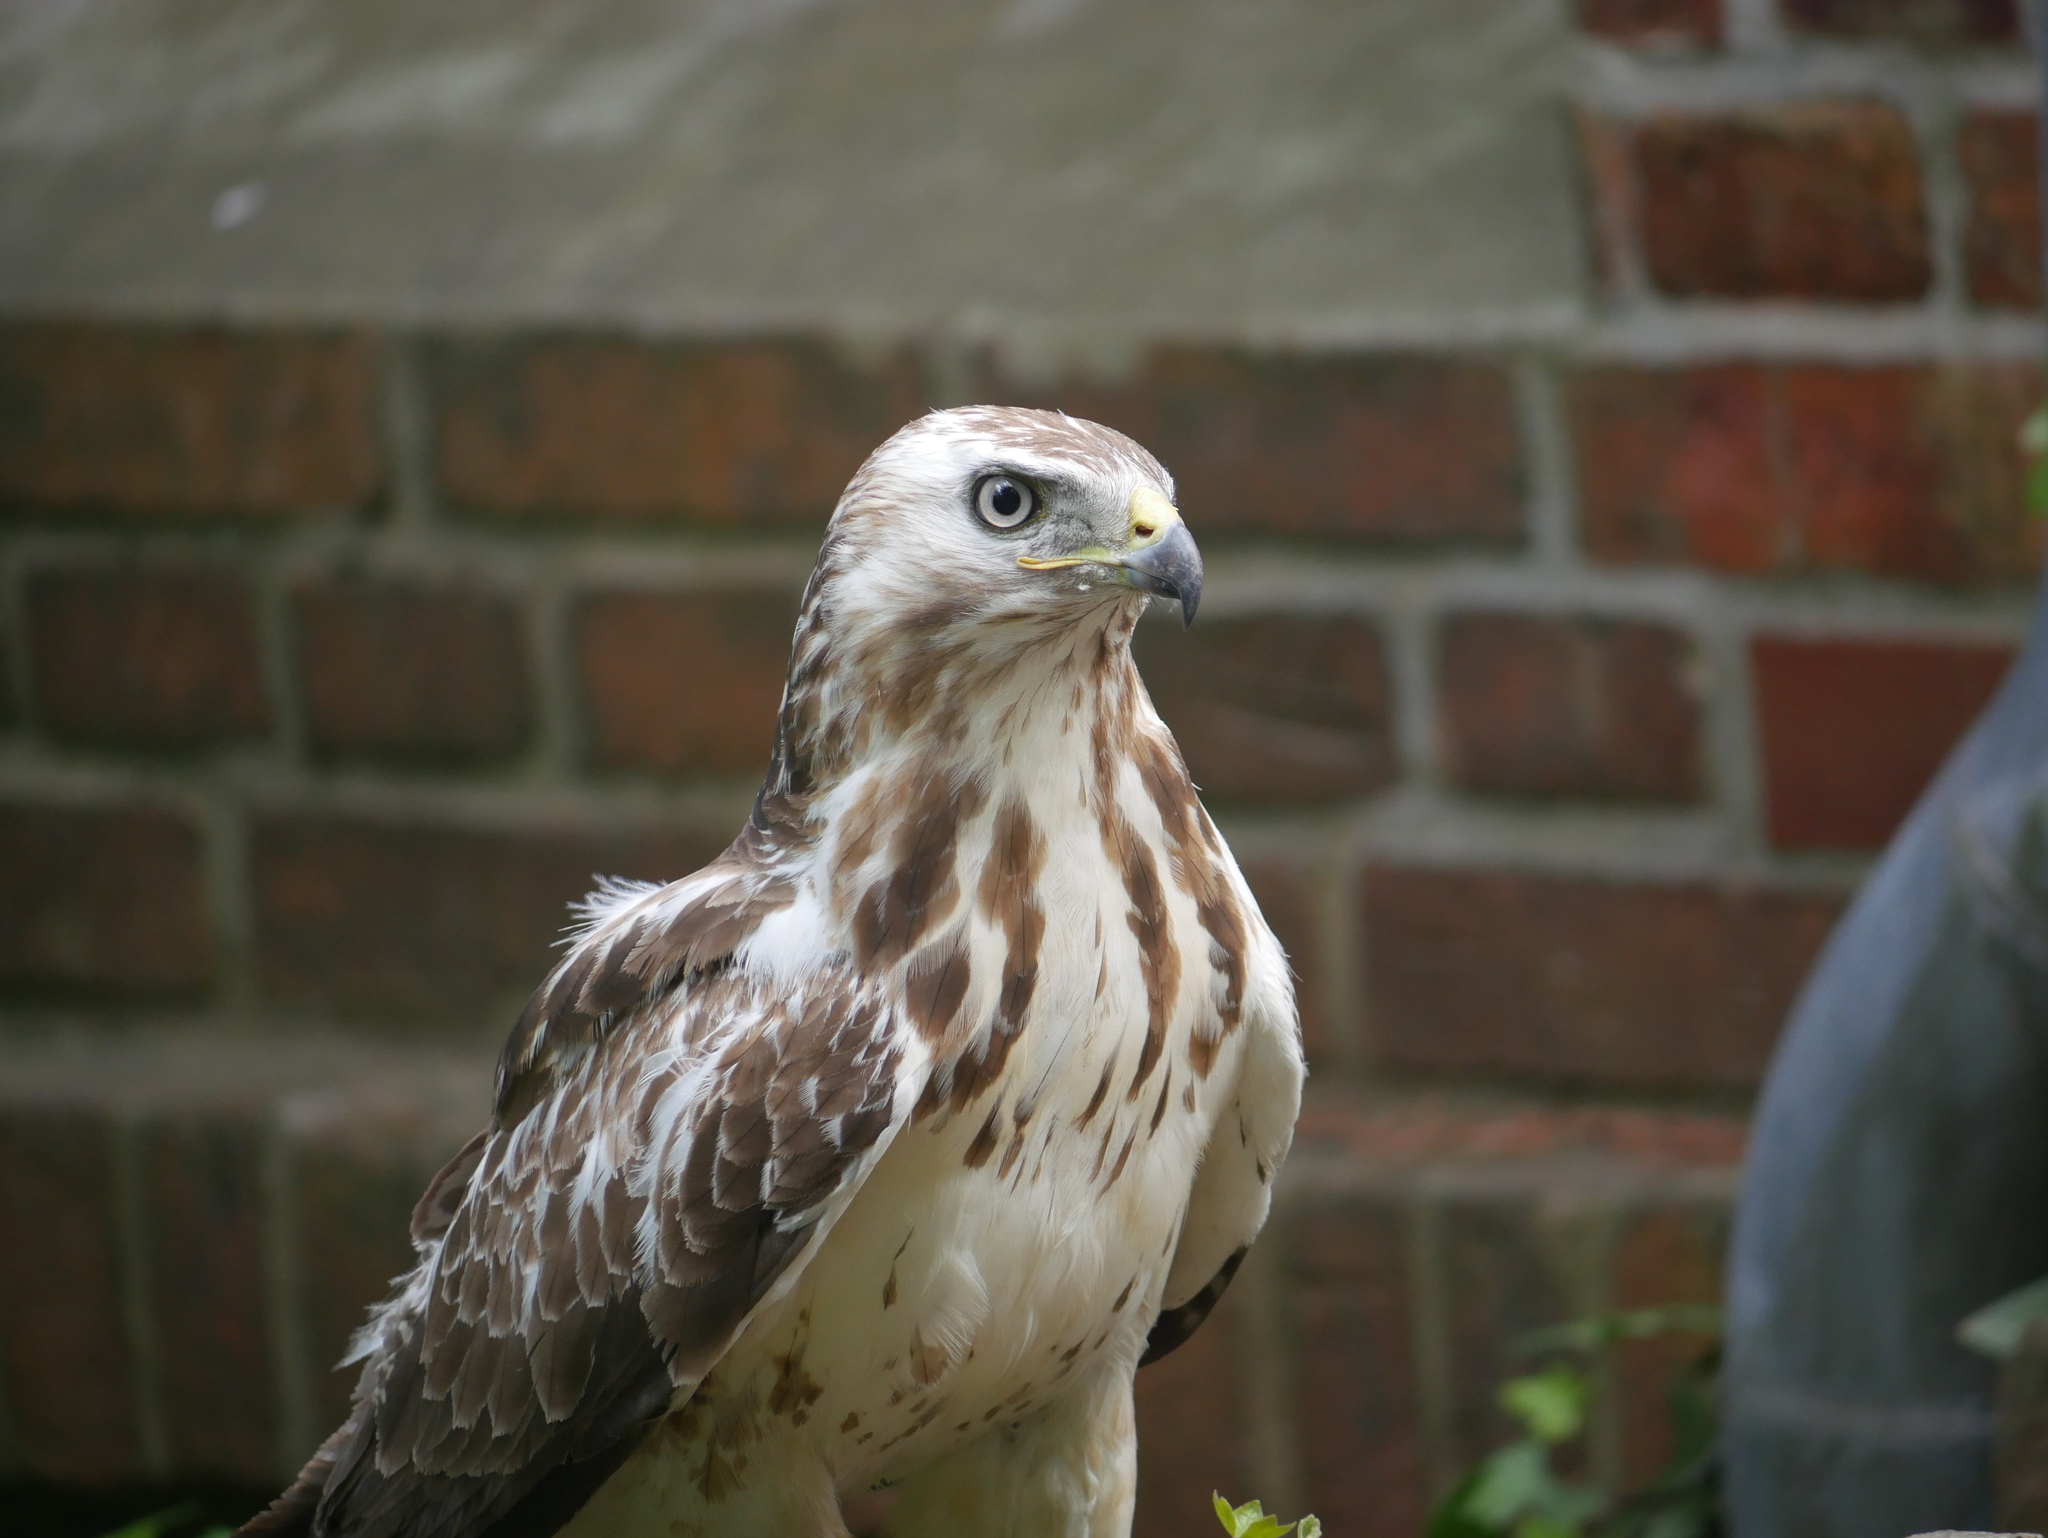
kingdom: Animalia
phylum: Chordata
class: Aves
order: Accipitriformes
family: Accipitridae
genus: Buteo
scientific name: Buteo buteo
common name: Common buzzard
